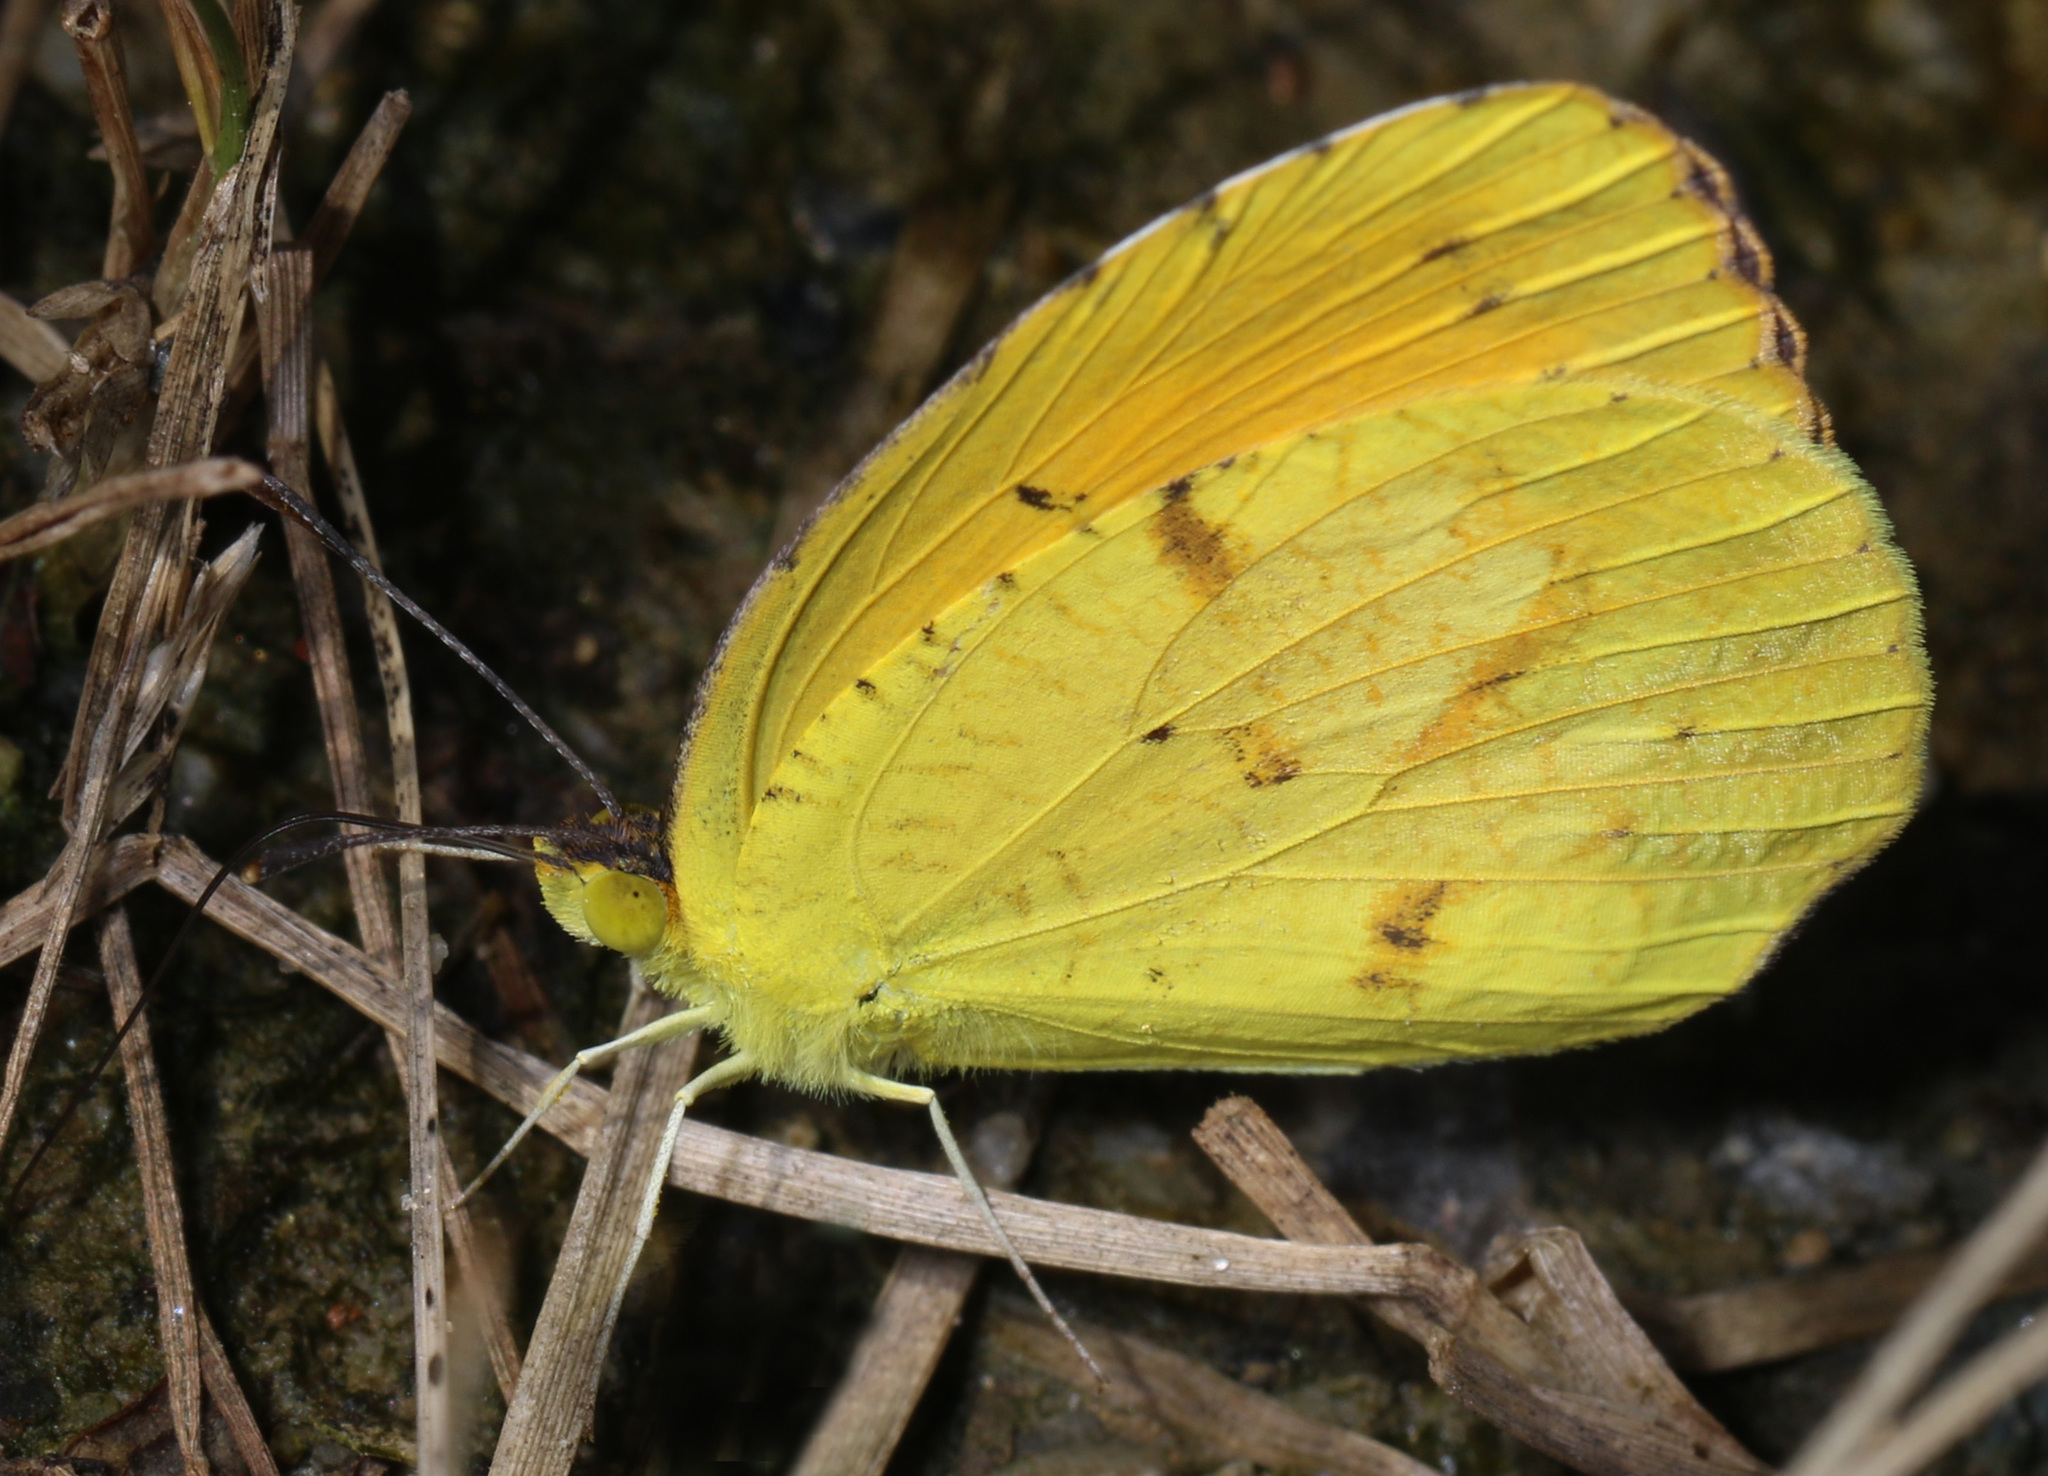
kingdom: Animalia
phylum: Arthropoda
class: Insecta
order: Lepidoptera
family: Pieridae
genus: Abaeis
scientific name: Abaeis nicippe
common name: Sleepy orange
